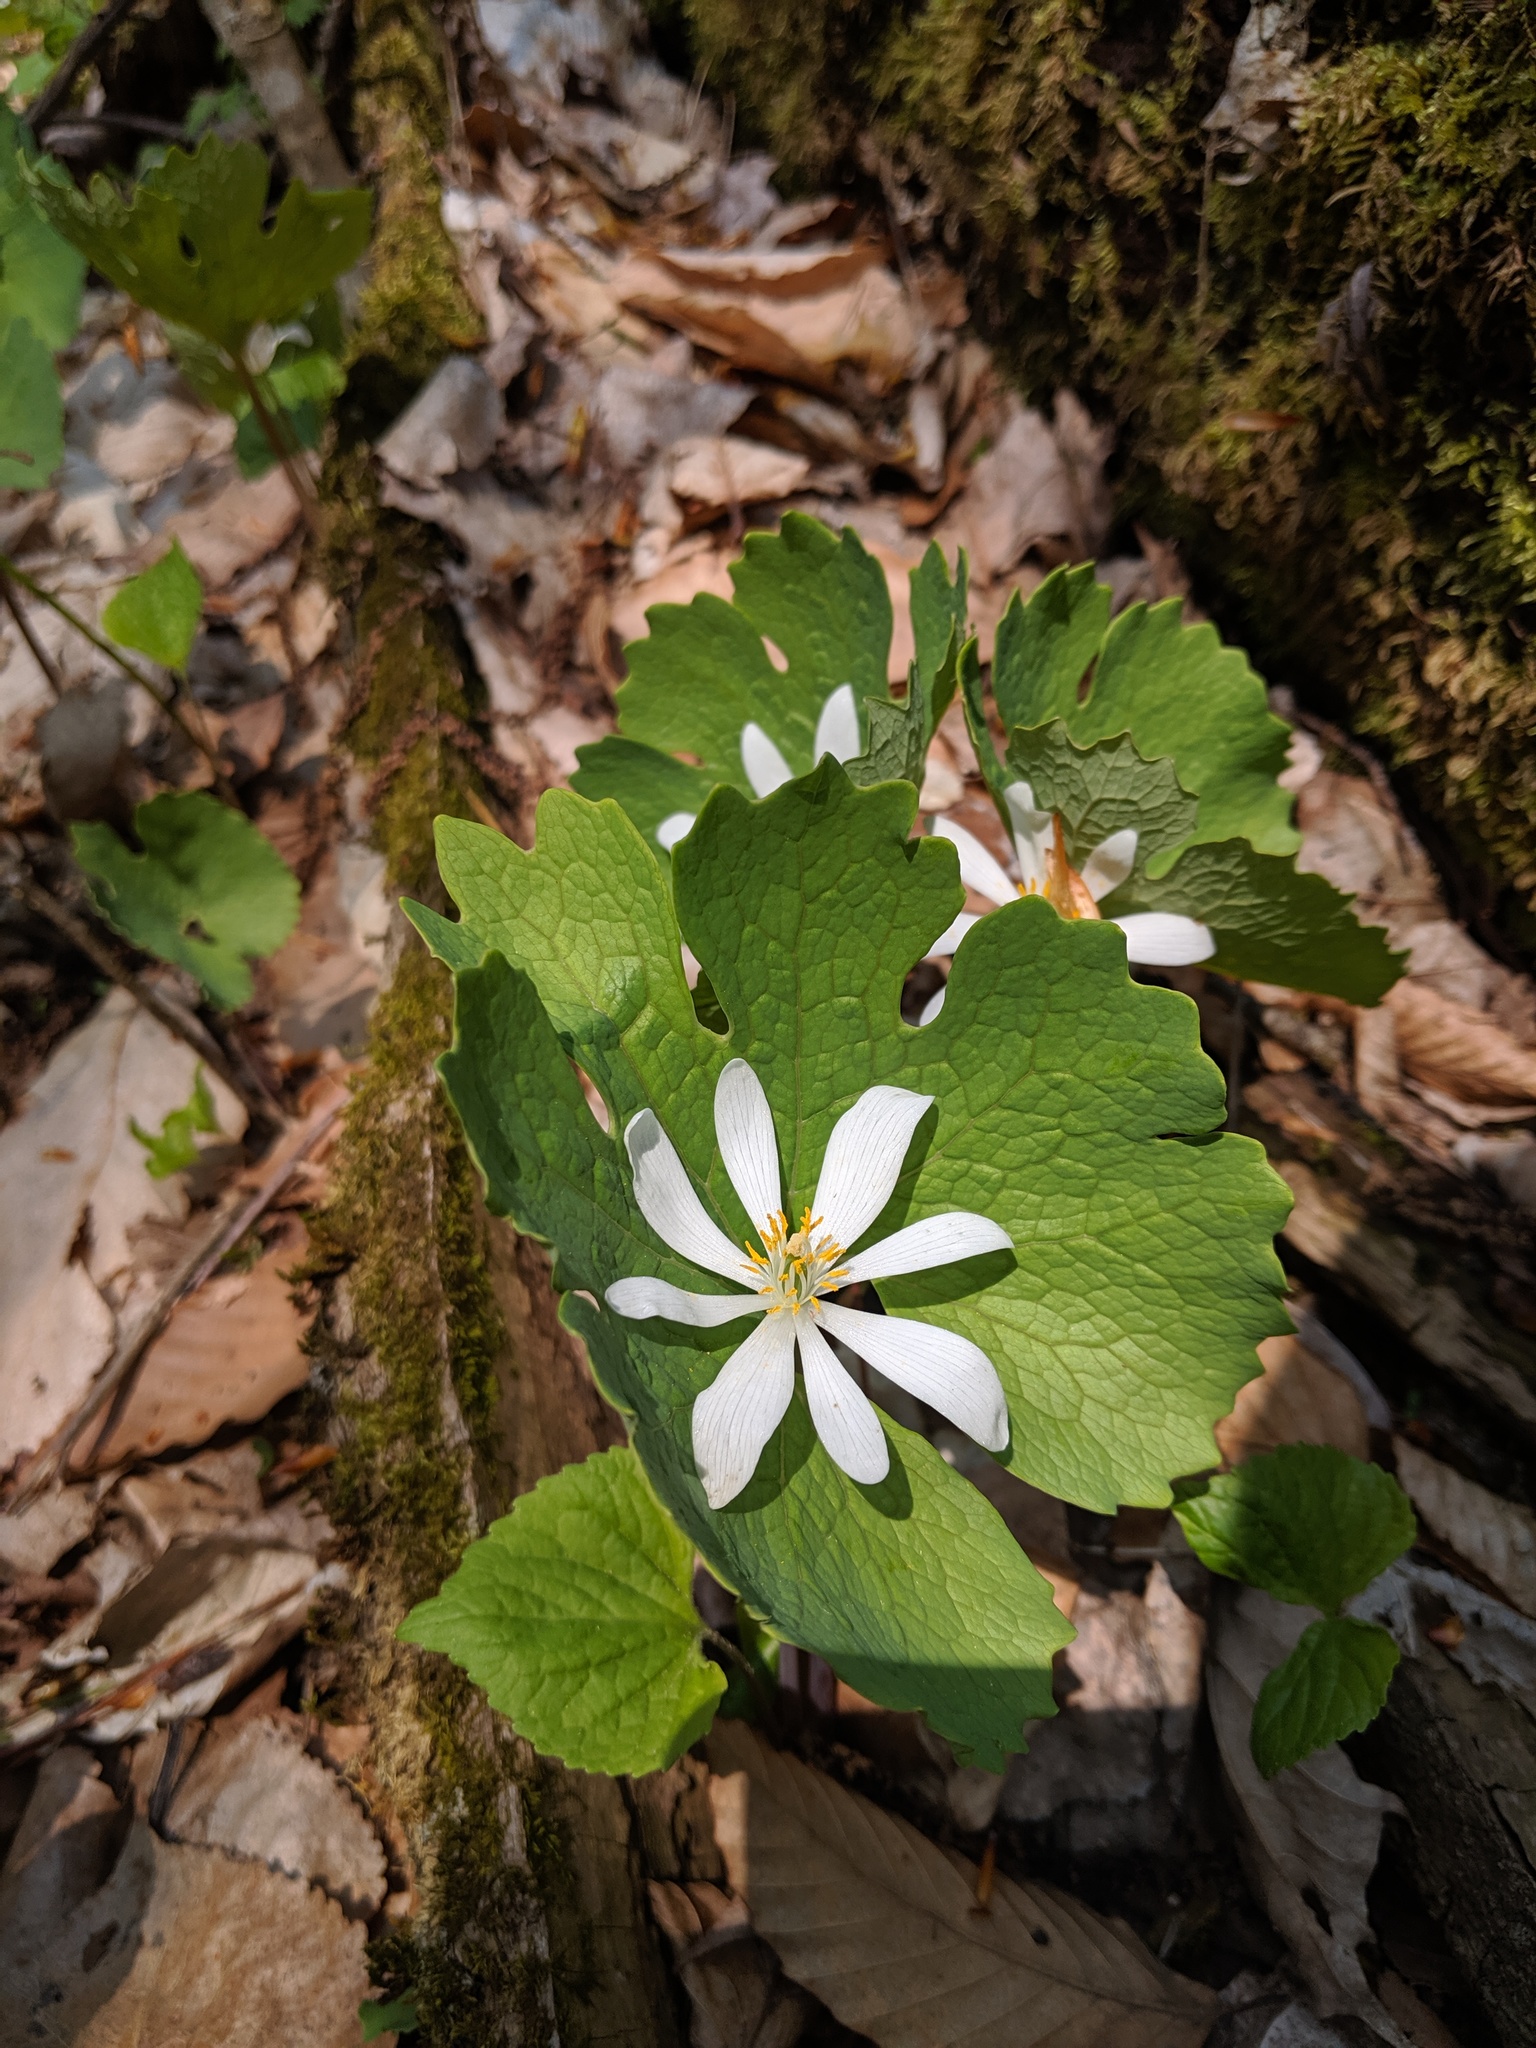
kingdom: Plantae
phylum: Tracheophyta
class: Magnoliopsida
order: Ranunculales
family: Papaveraceae
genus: Sanguinaria
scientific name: Sanguinaria canadensis
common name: Bloodroot
